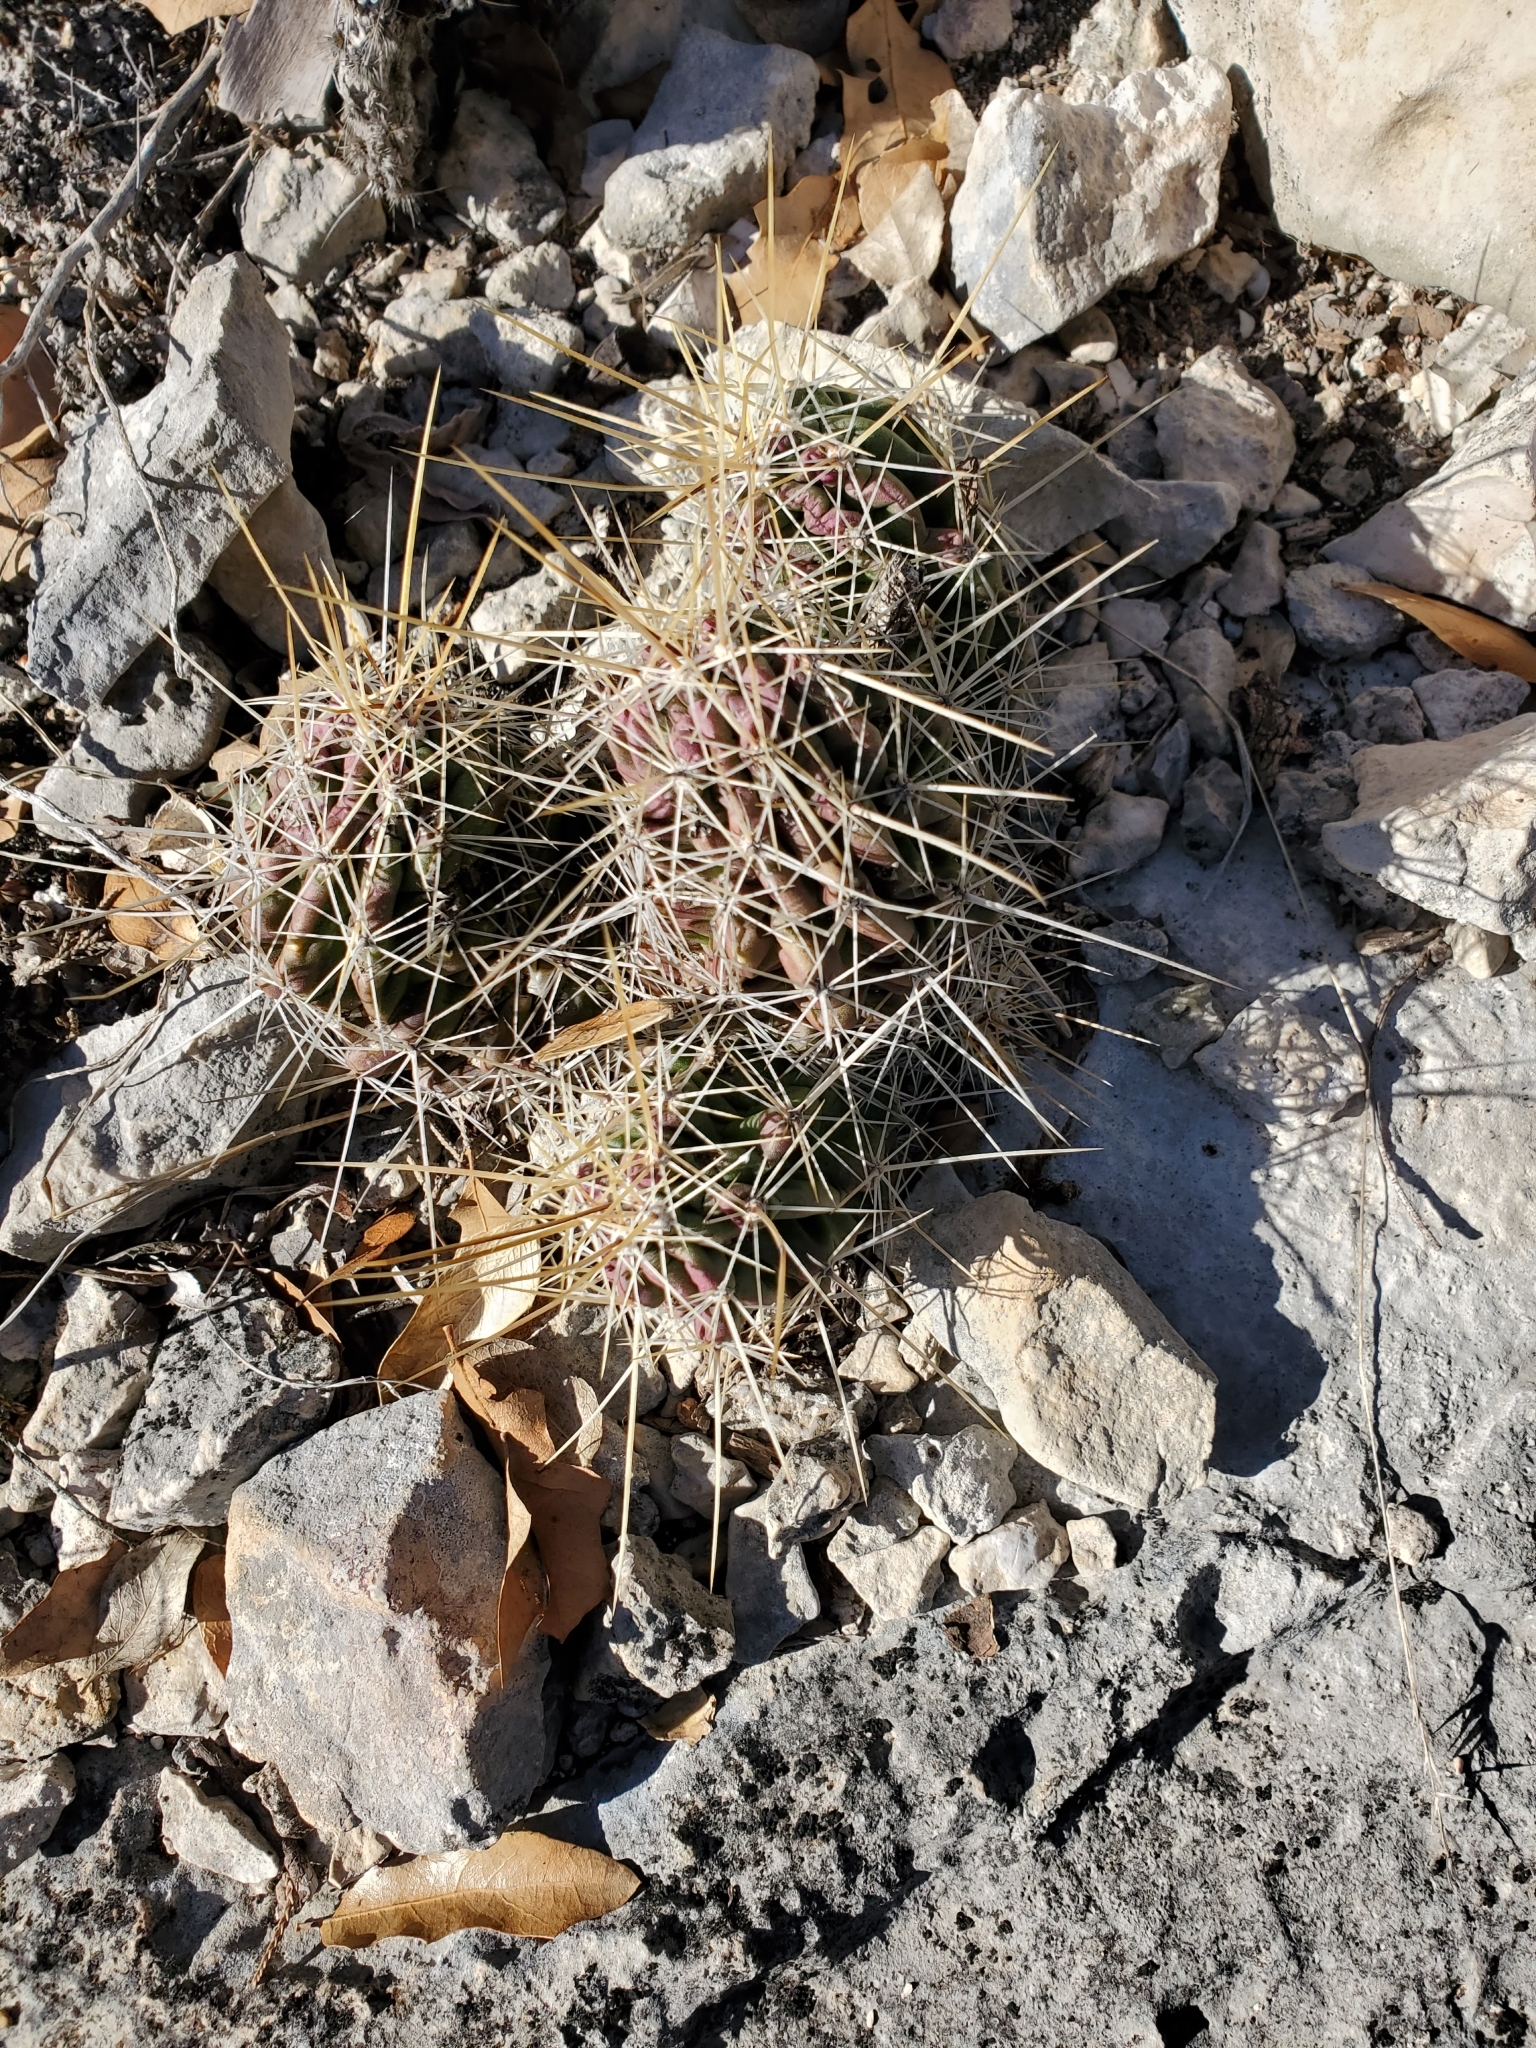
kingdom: Plantae
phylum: Tracheophyta
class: Magnoliopsida
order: Caryophyllales
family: Cactaceae
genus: Echinocereus
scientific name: Echinocereus enneacanthus
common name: Pitaya
